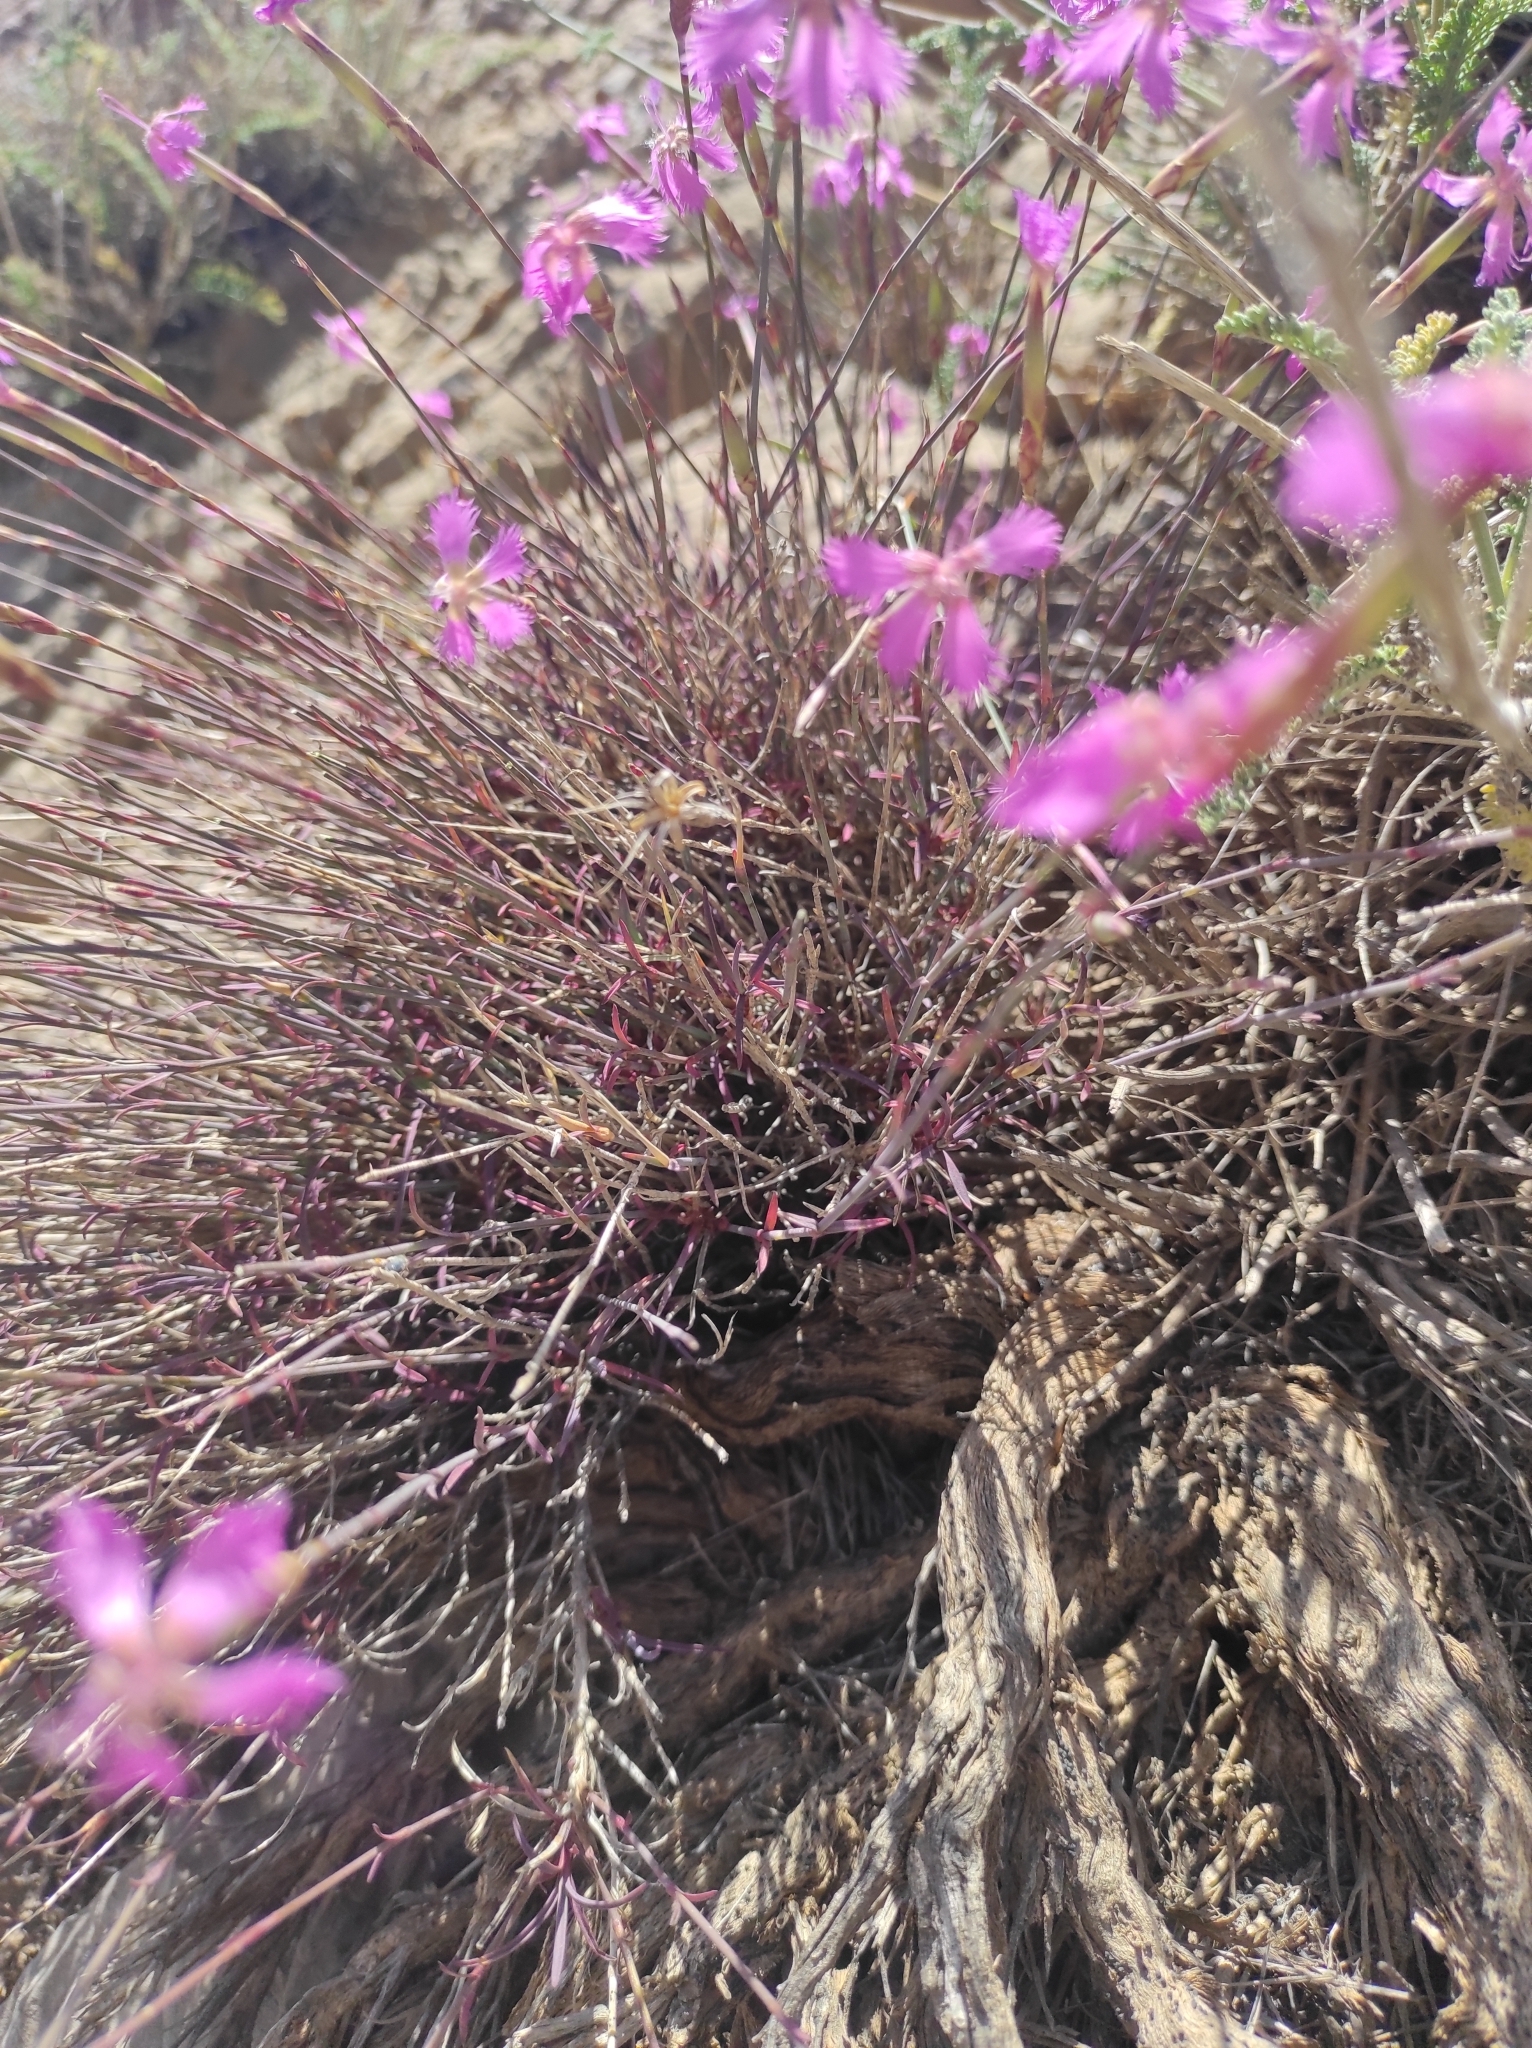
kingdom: Plantae
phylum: Tracheophyta
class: Magnoliopsida
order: Caryophyllales
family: Caryophyllaceae
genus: Dianthus
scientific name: Dianthus orientalis
